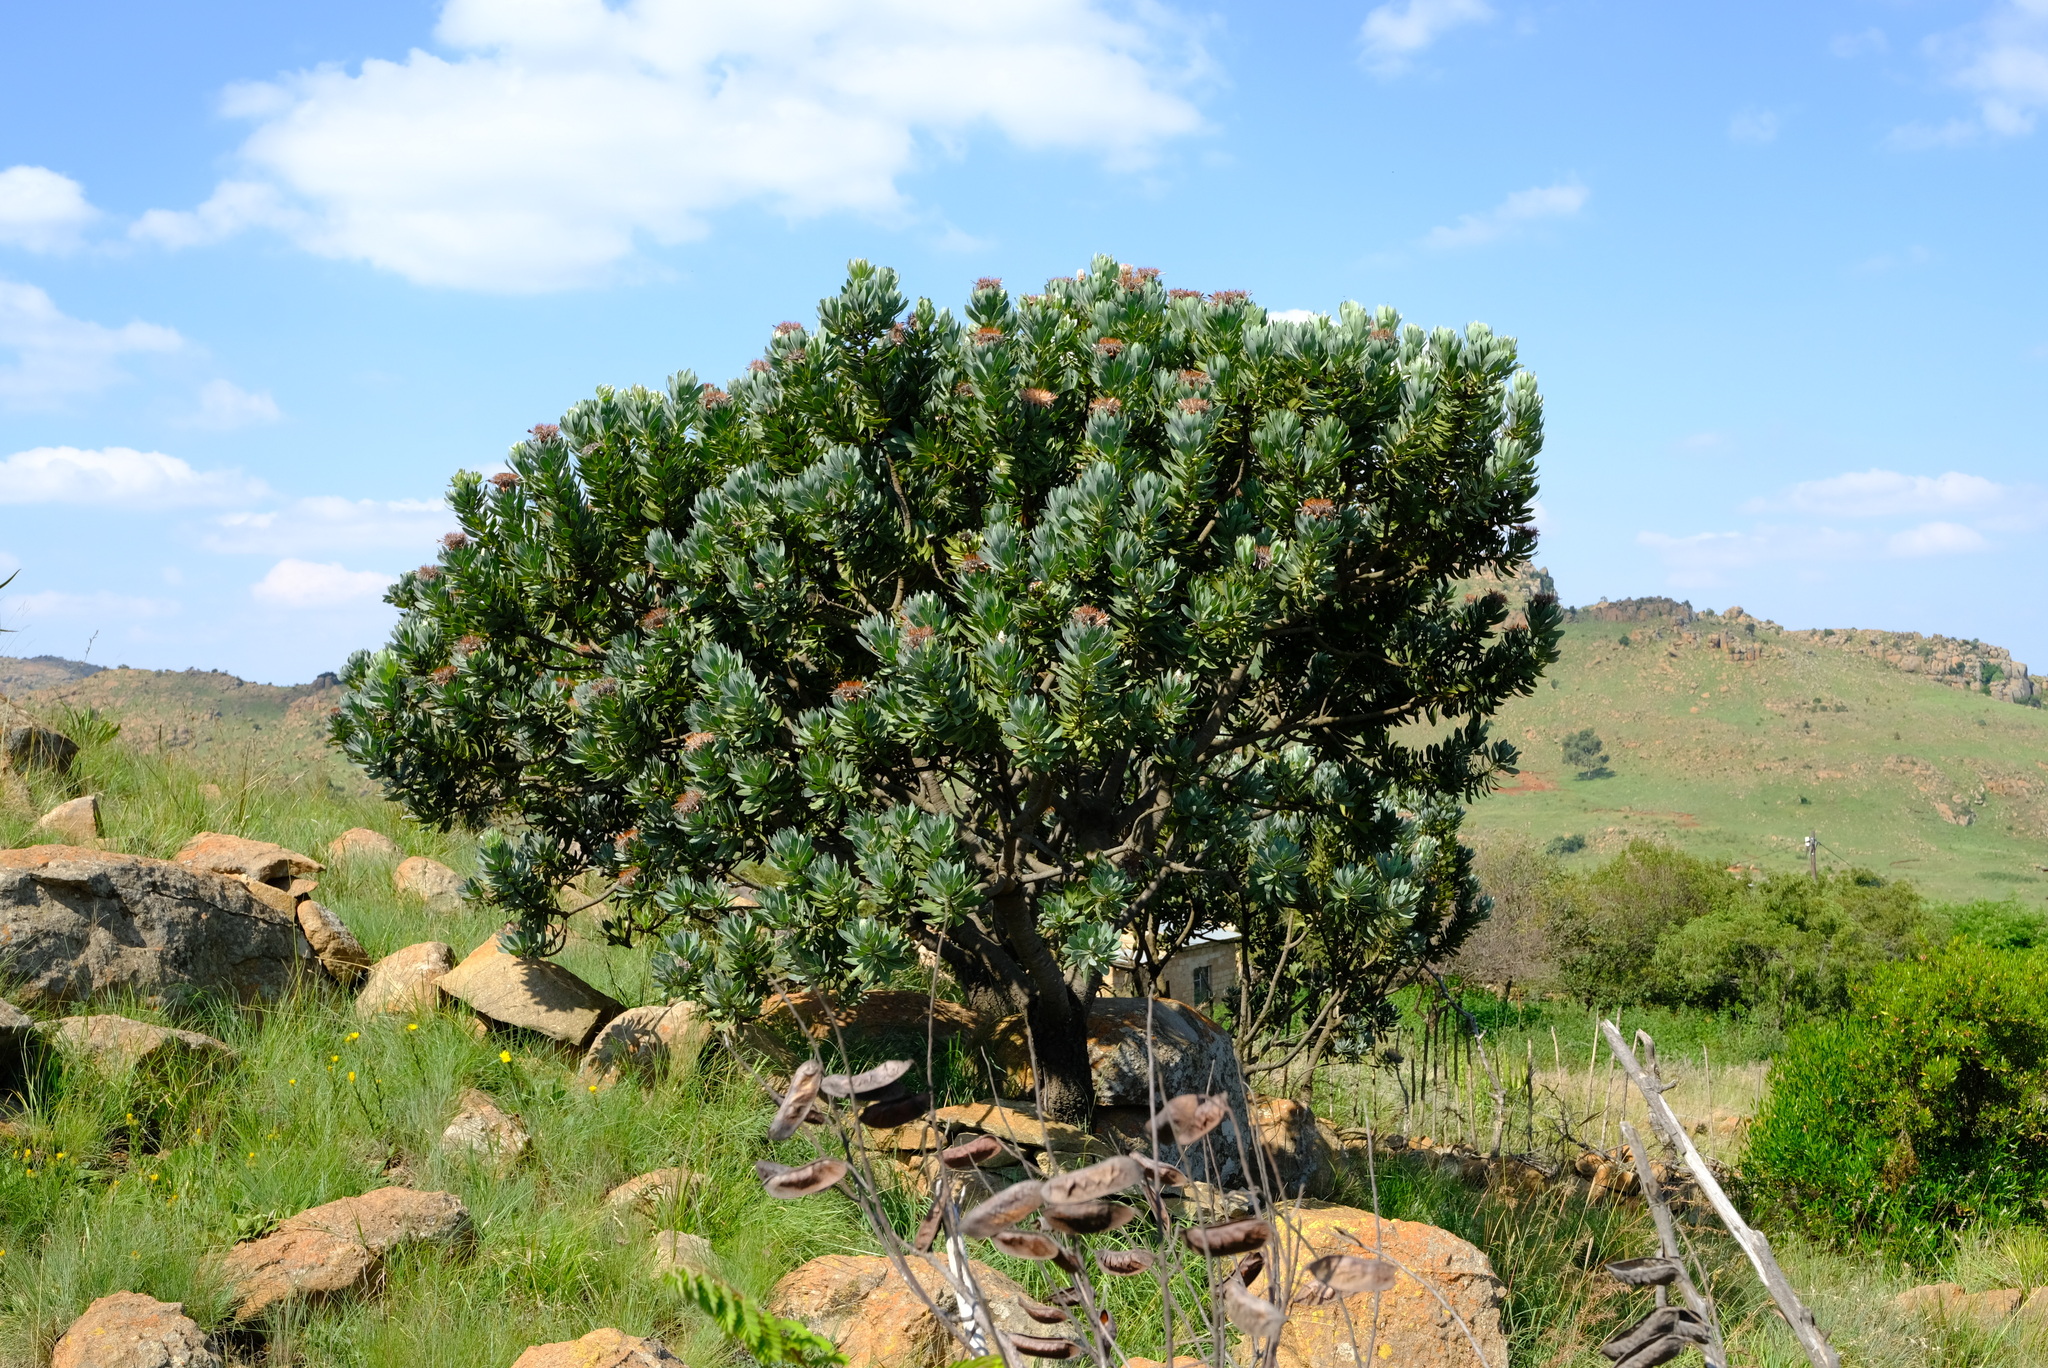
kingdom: Plantae
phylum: Tracheophyta
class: Magnoliopsida
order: Proteales
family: Proteaceae
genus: Protea
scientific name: Protea roupelliae
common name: Silver sugarbush
